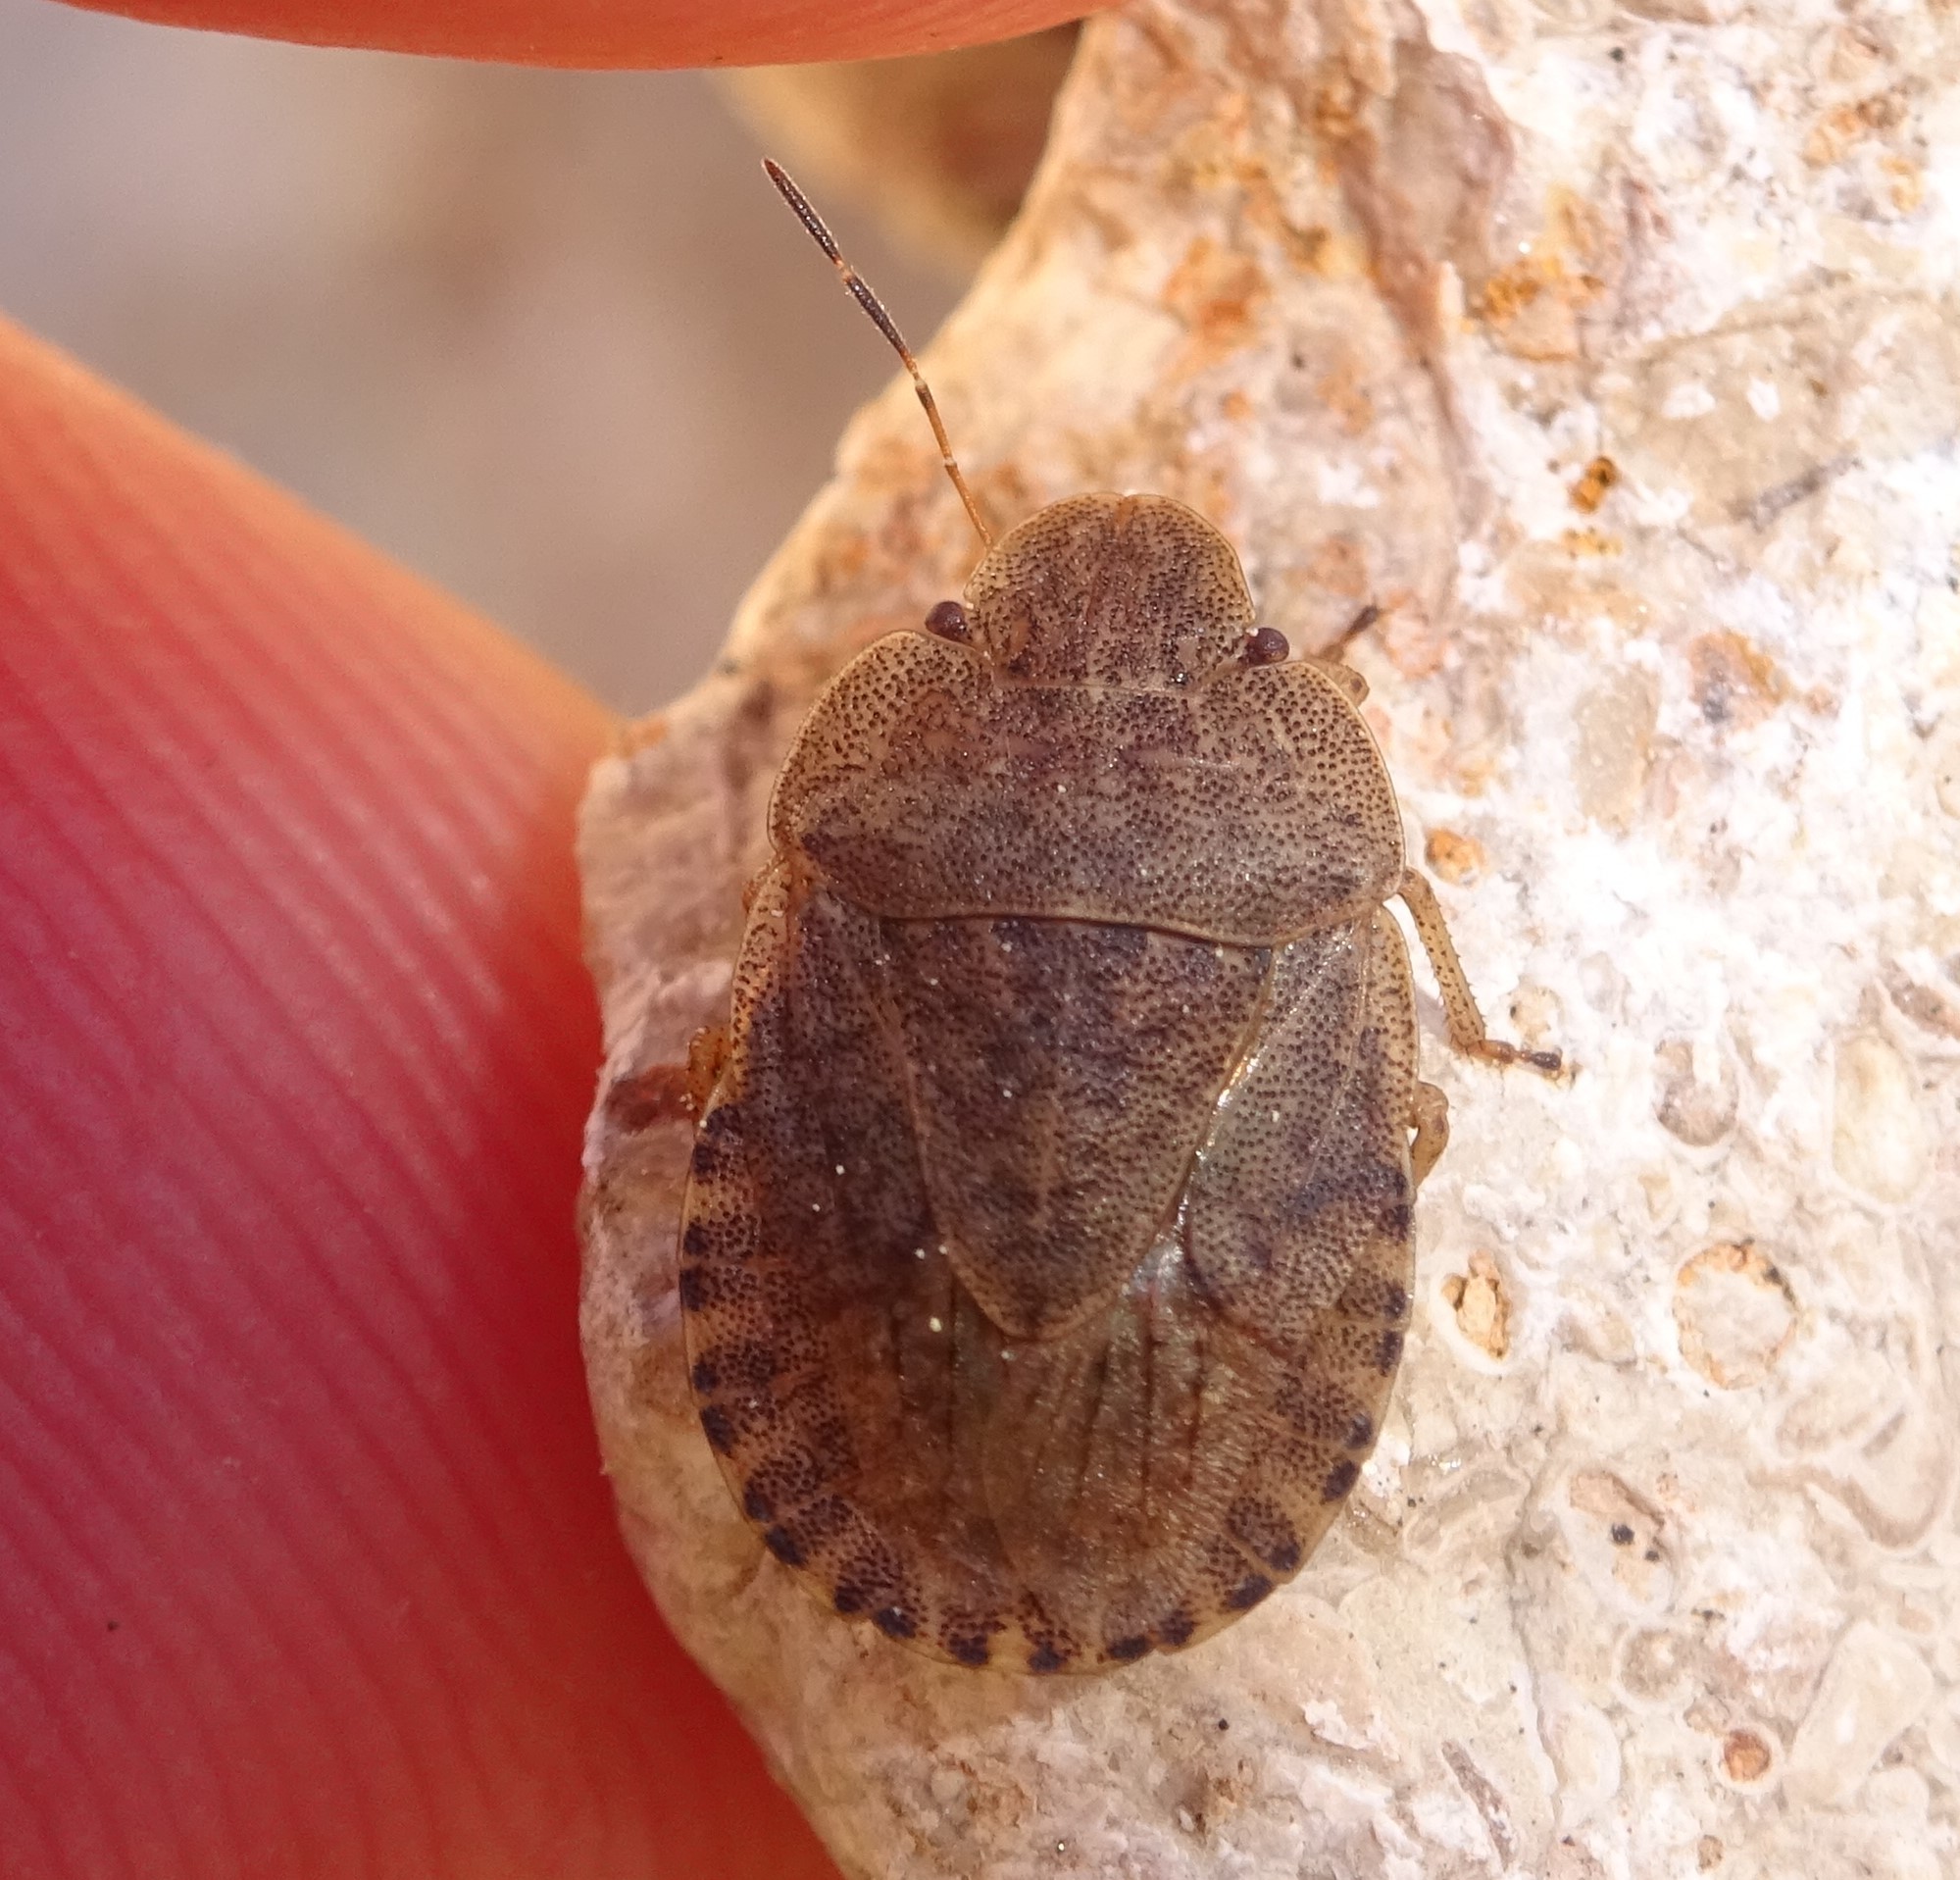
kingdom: Animalia
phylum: Arthropoda
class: Insecta
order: Hemiptera
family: Pentatomidae
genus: Sciocoris
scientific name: Sciocoris homalonotus
